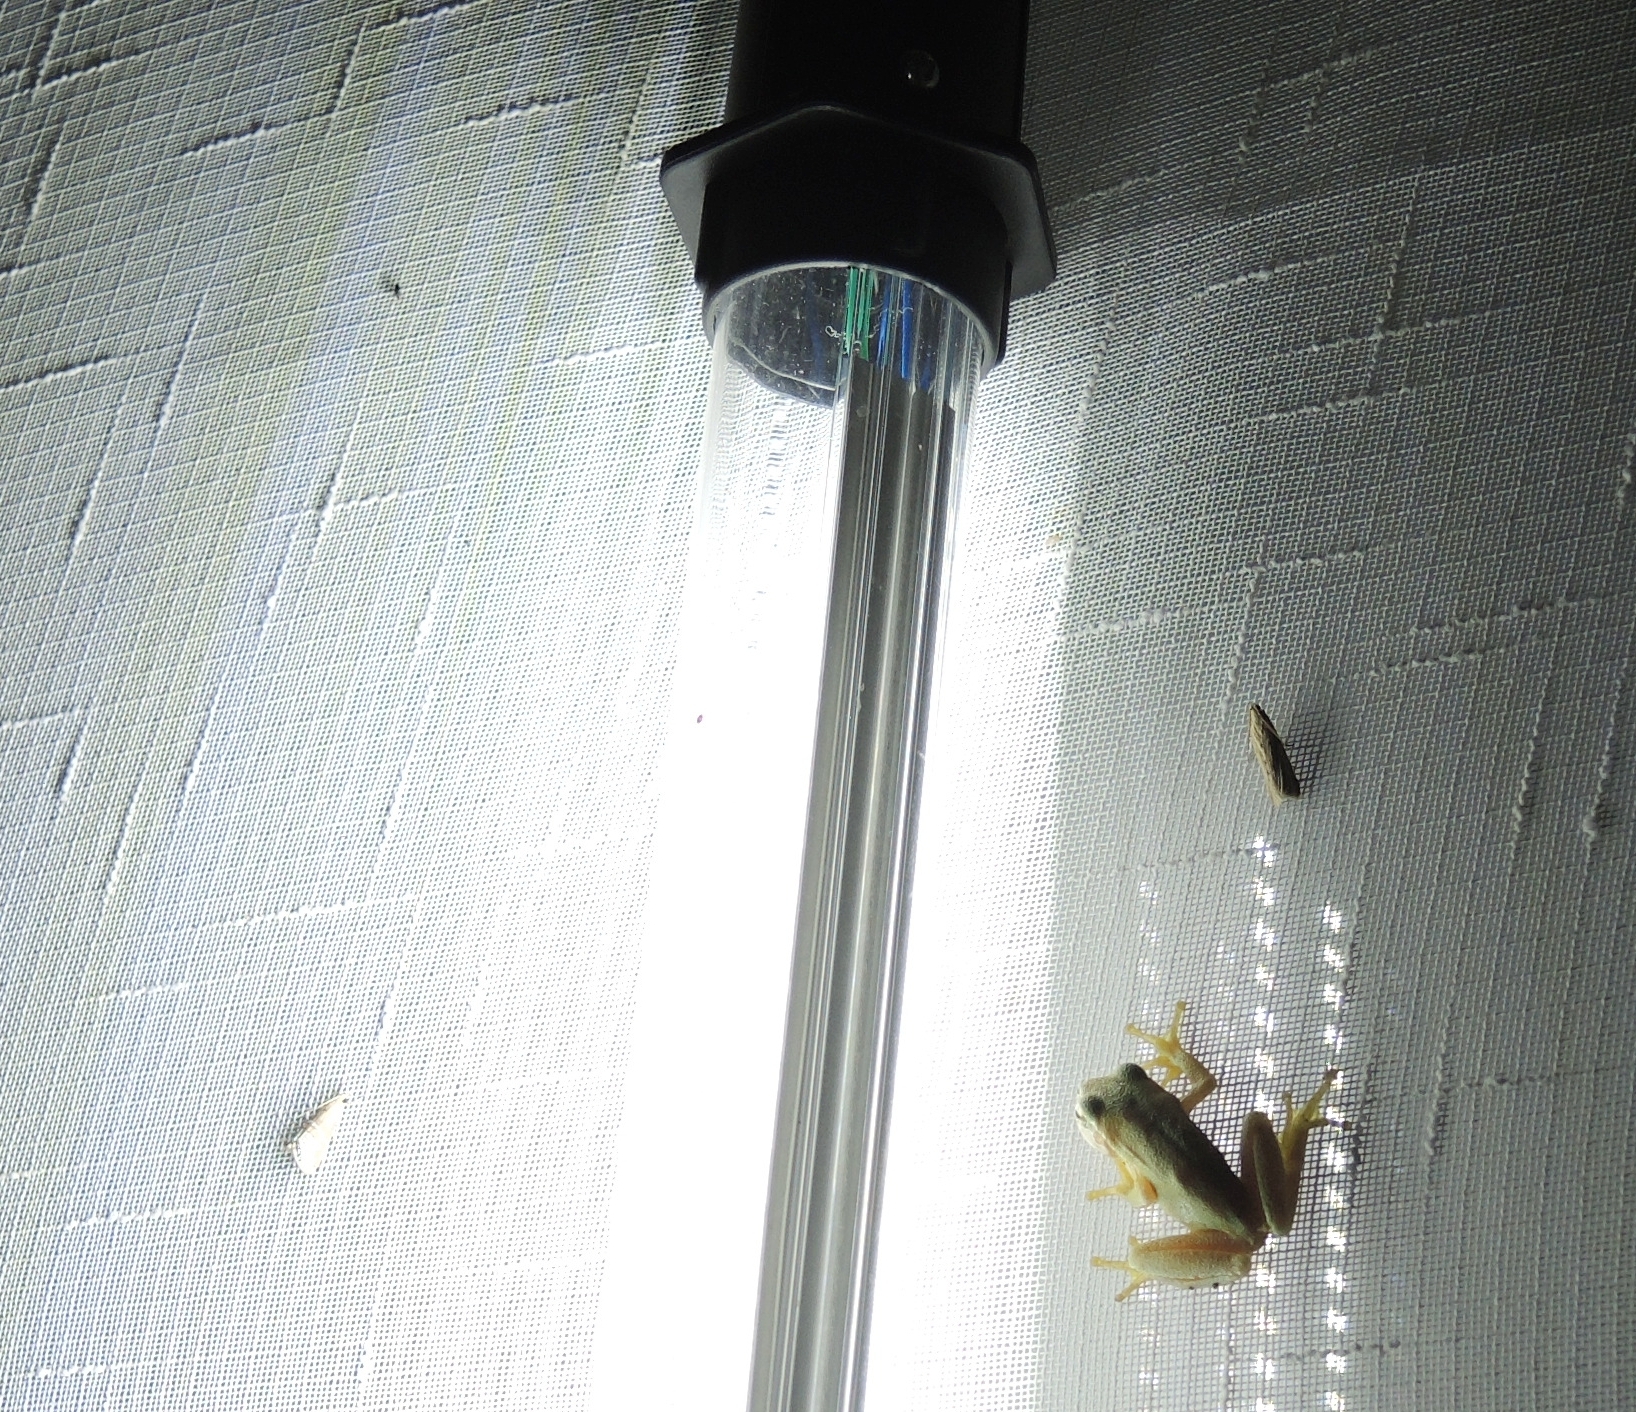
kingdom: Animalia
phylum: Chordata
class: Amphibia
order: Anura
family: Hylidae
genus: Hyla
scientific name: Hyla orientalis
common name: Caucasian treefrog
